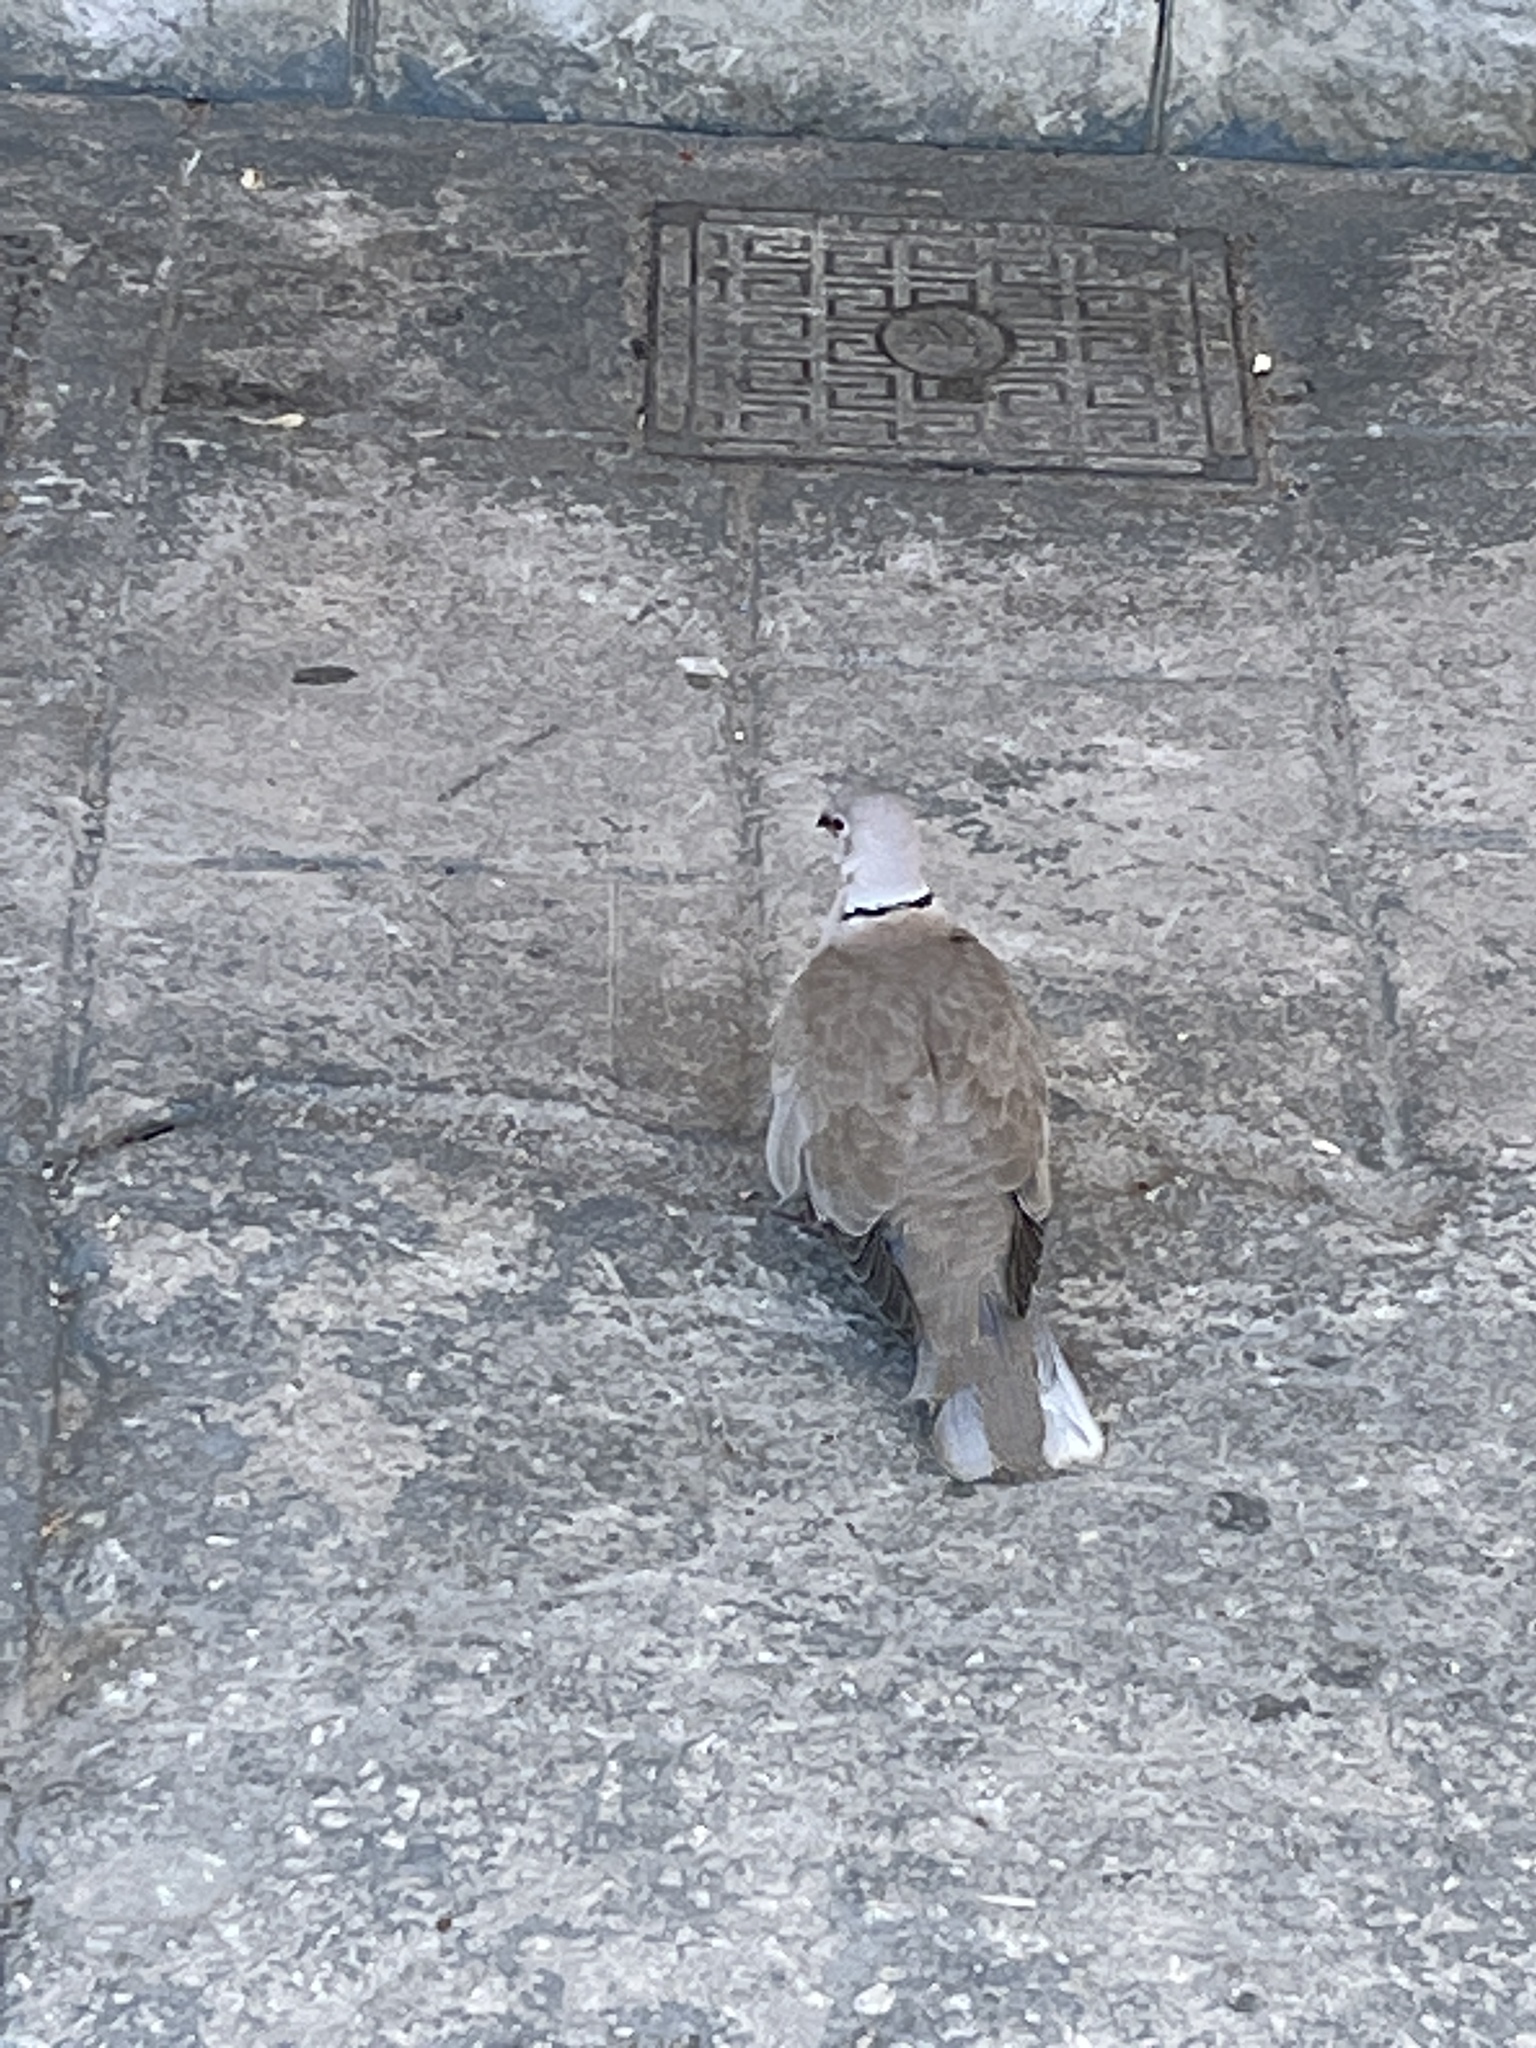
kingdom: Animalia
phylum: Chordata
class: Aves
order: Columbiformes
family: Columbidae
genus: Streptopelia
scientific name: Streptopelia decaocto
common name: Eurasian collared dove
